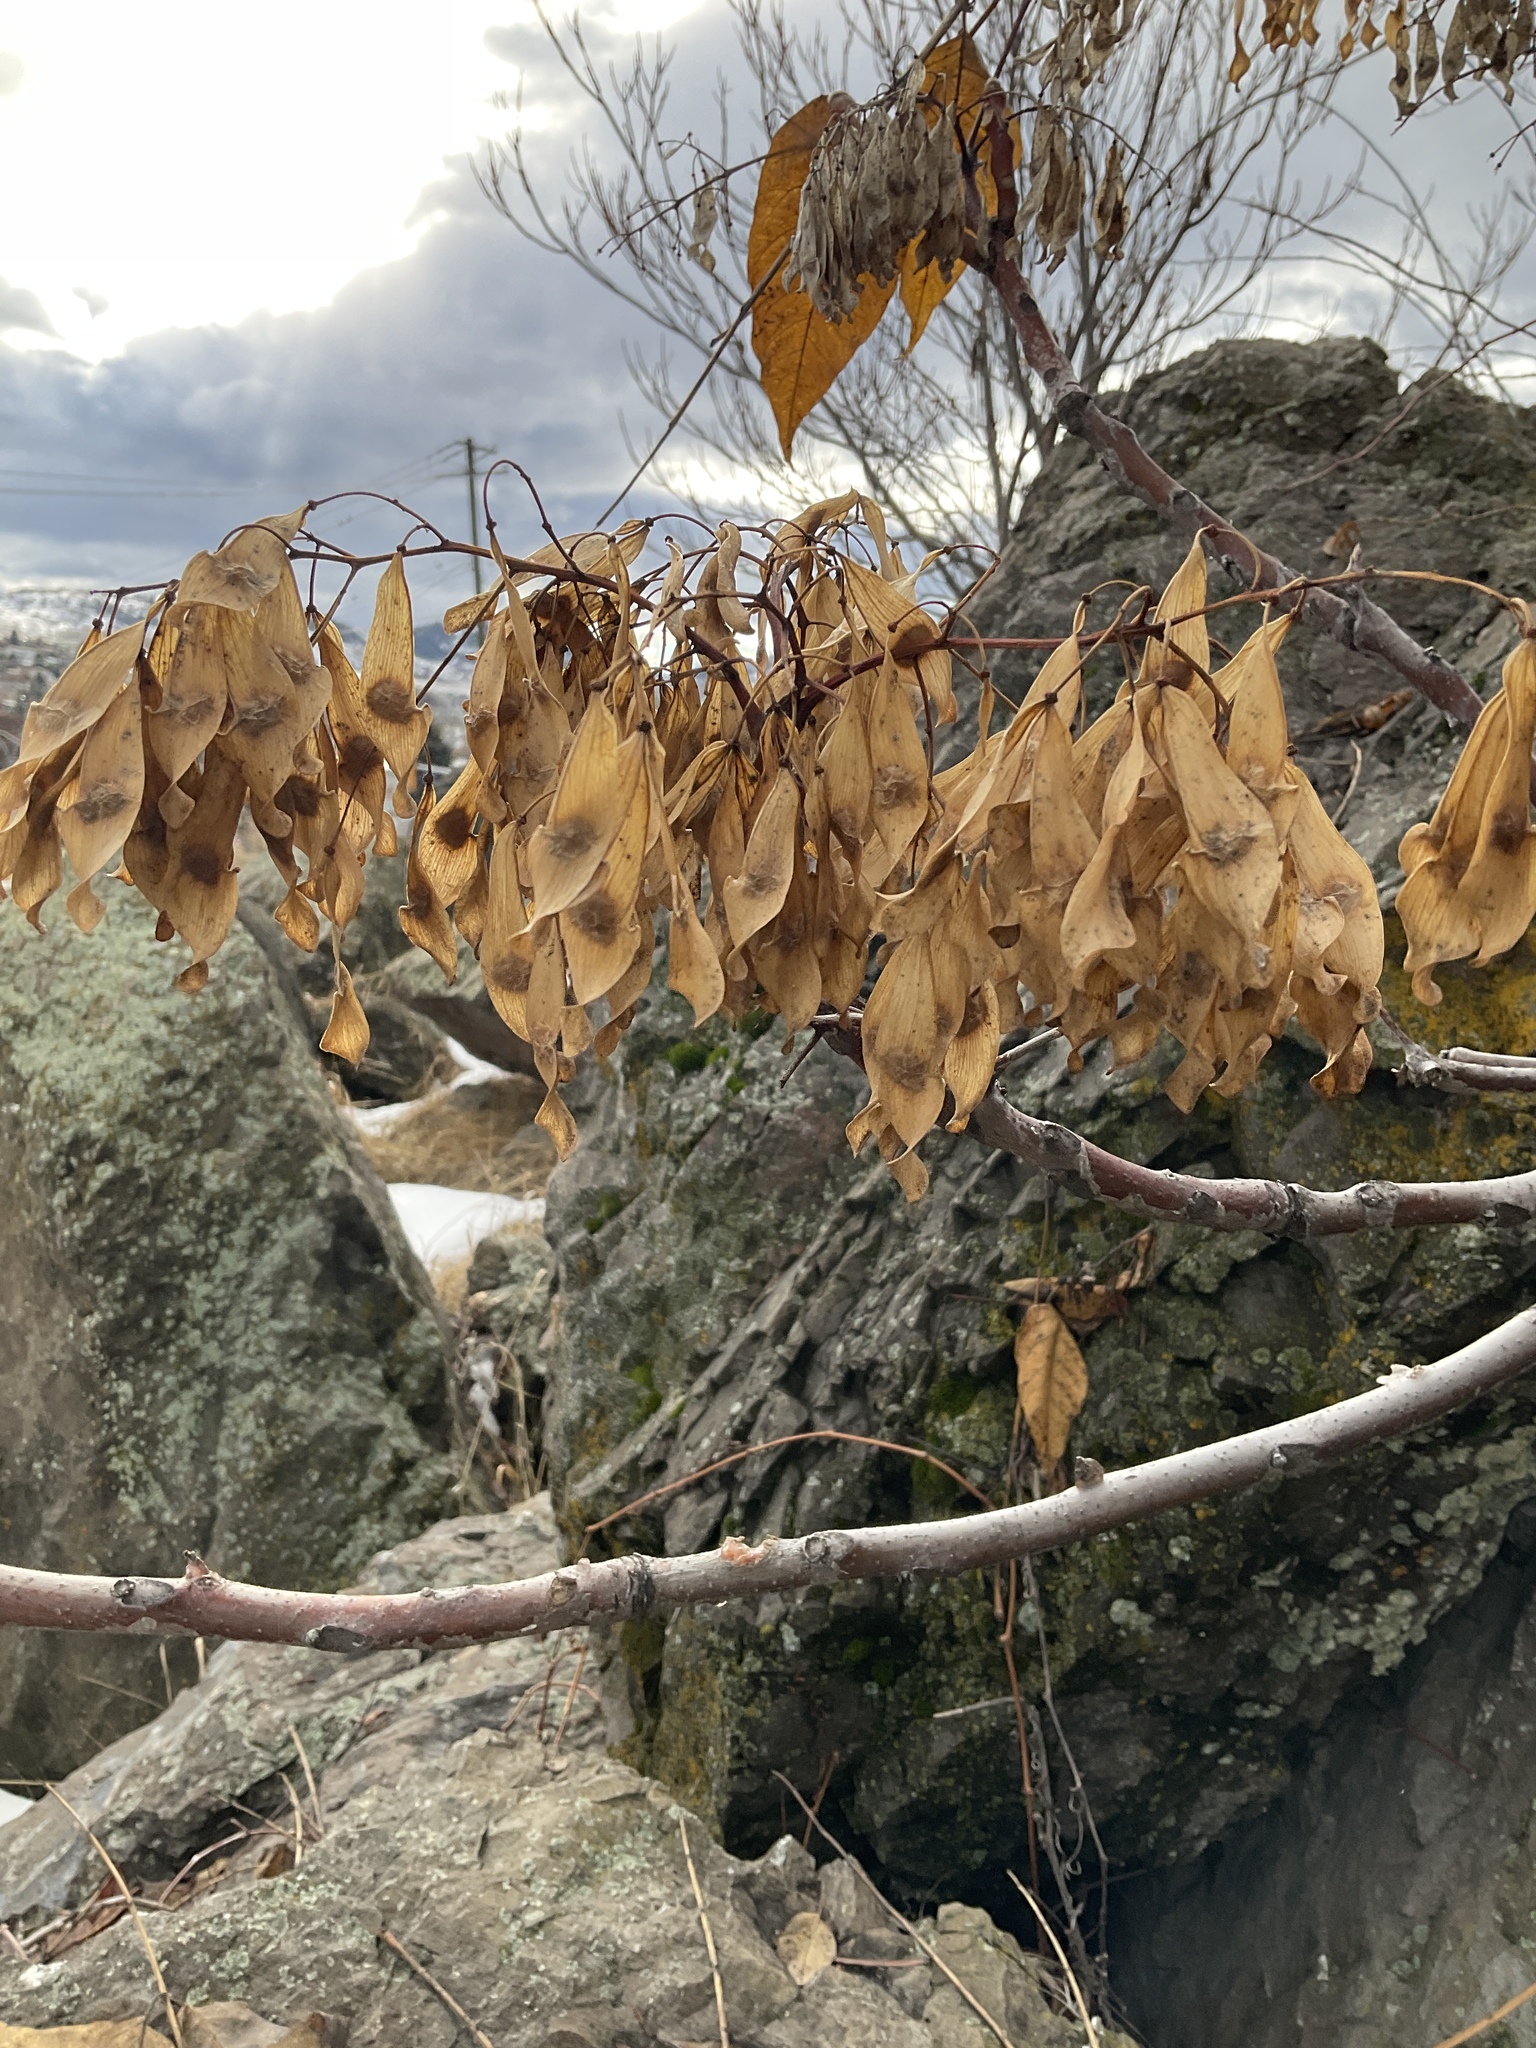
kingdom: Plantae
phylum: Tracheophyta
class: Magnoliopsida
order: Sapindales
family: Simaroubaceae
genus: Ailanthus
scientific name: Ailanthus altissima
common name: Tree-of-heaven
